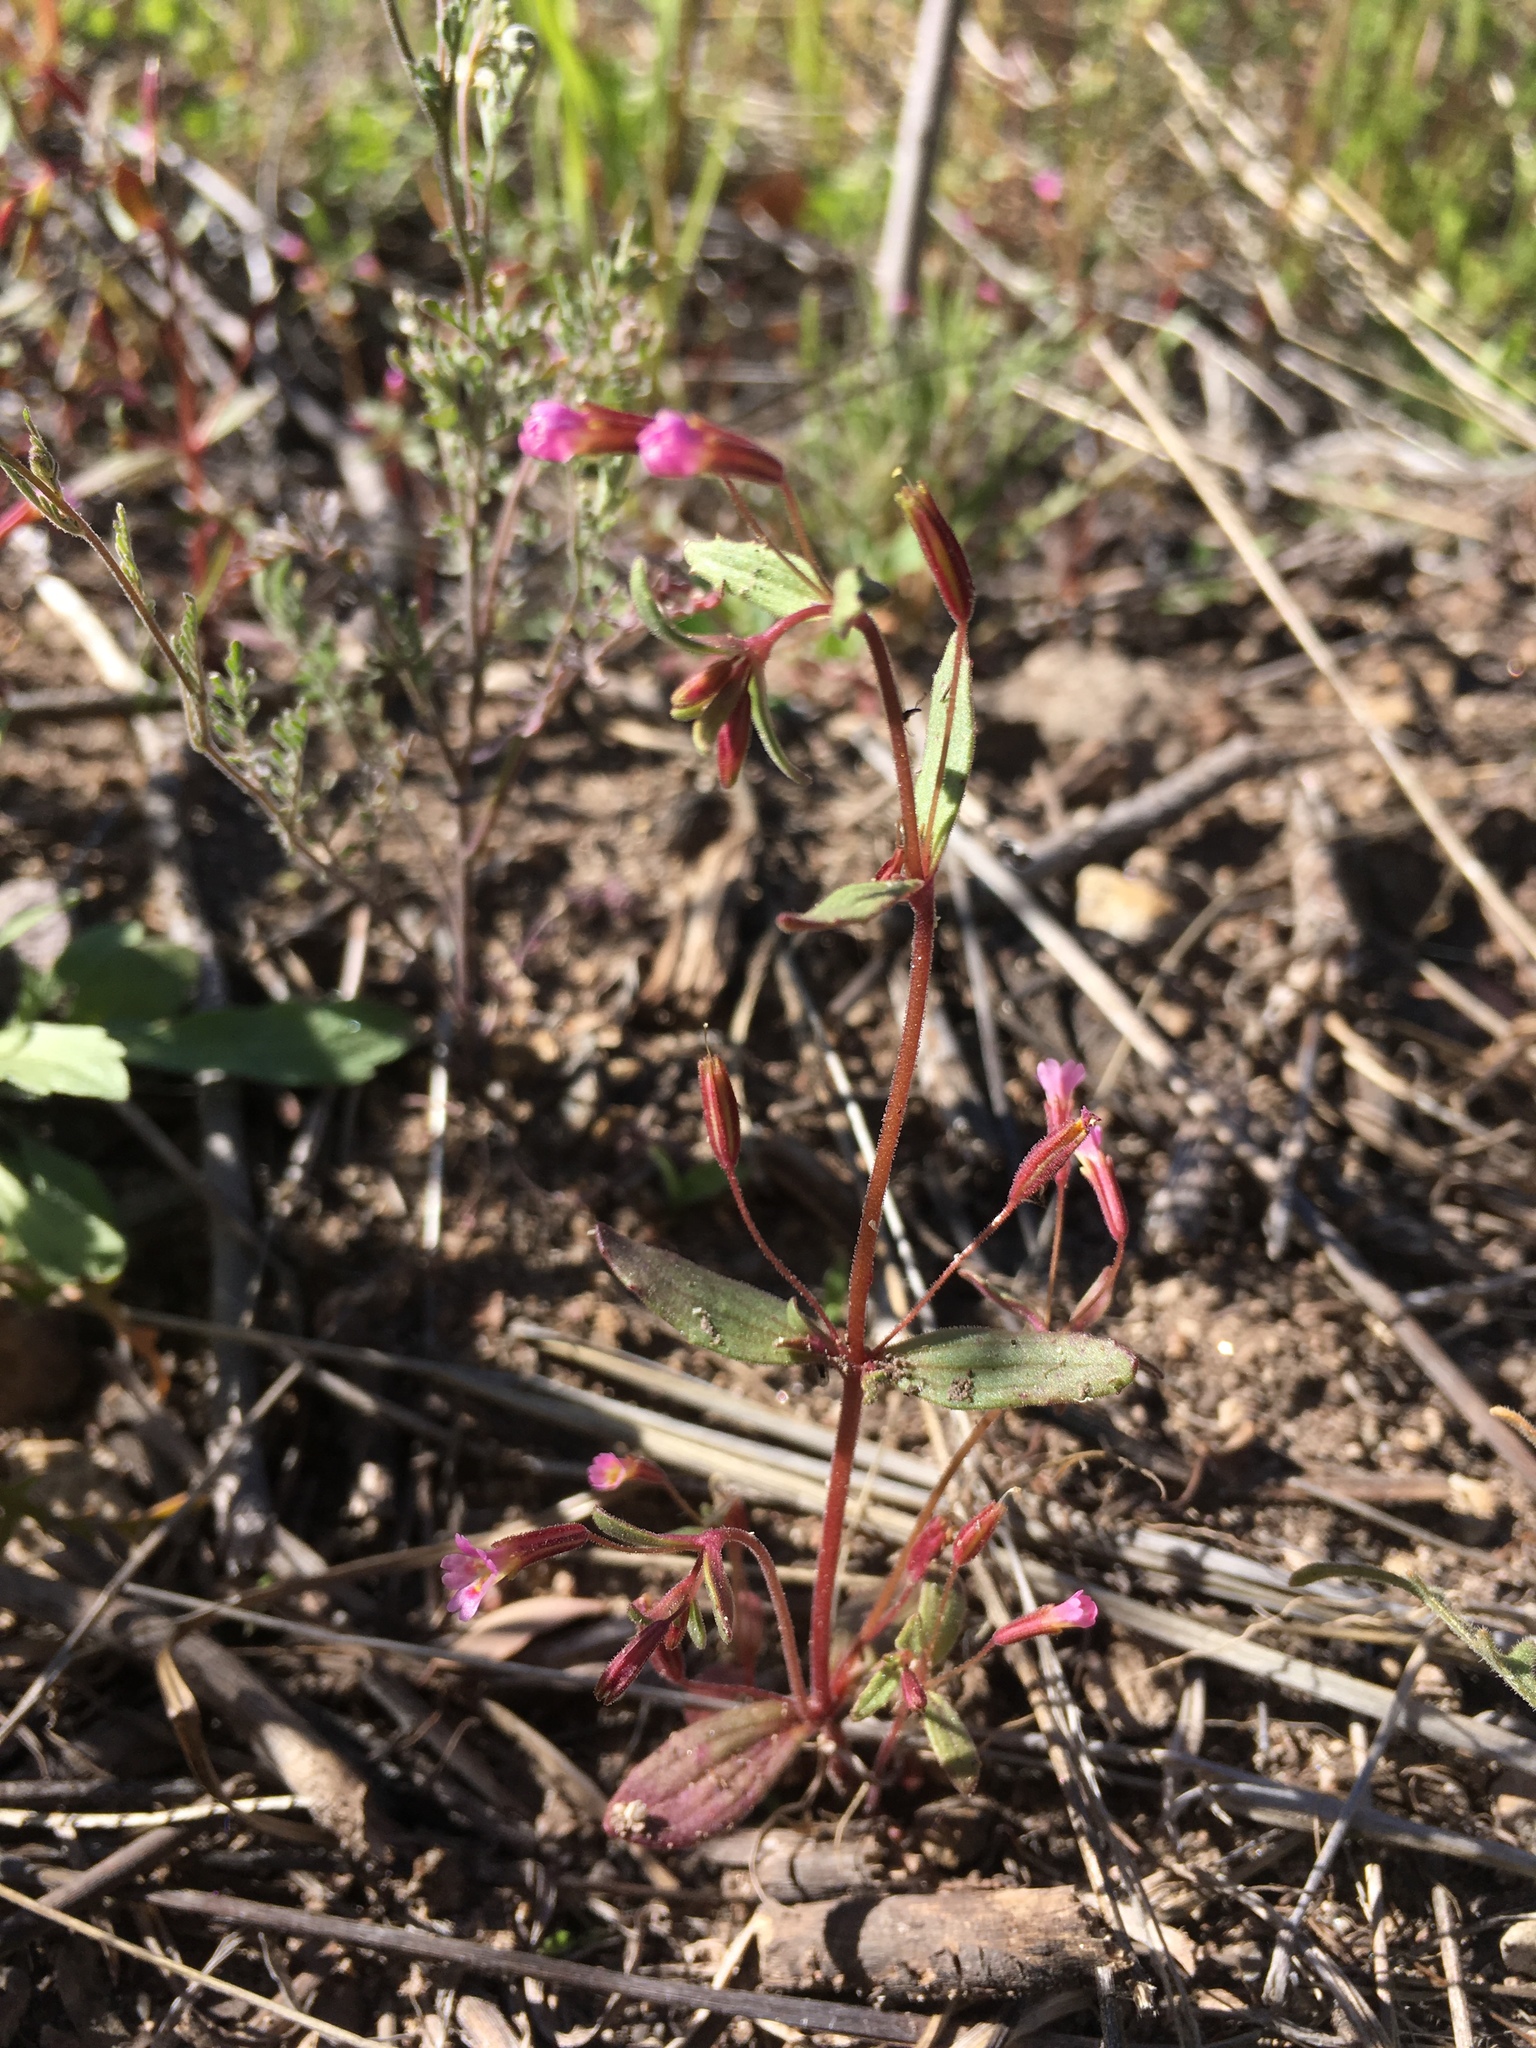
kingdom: Plantae
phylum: Tracheophyta
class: Magnoliopsida
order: Lamiales
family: Phrymaceae
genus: Erythranthe
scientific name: Erythranthe rubella
